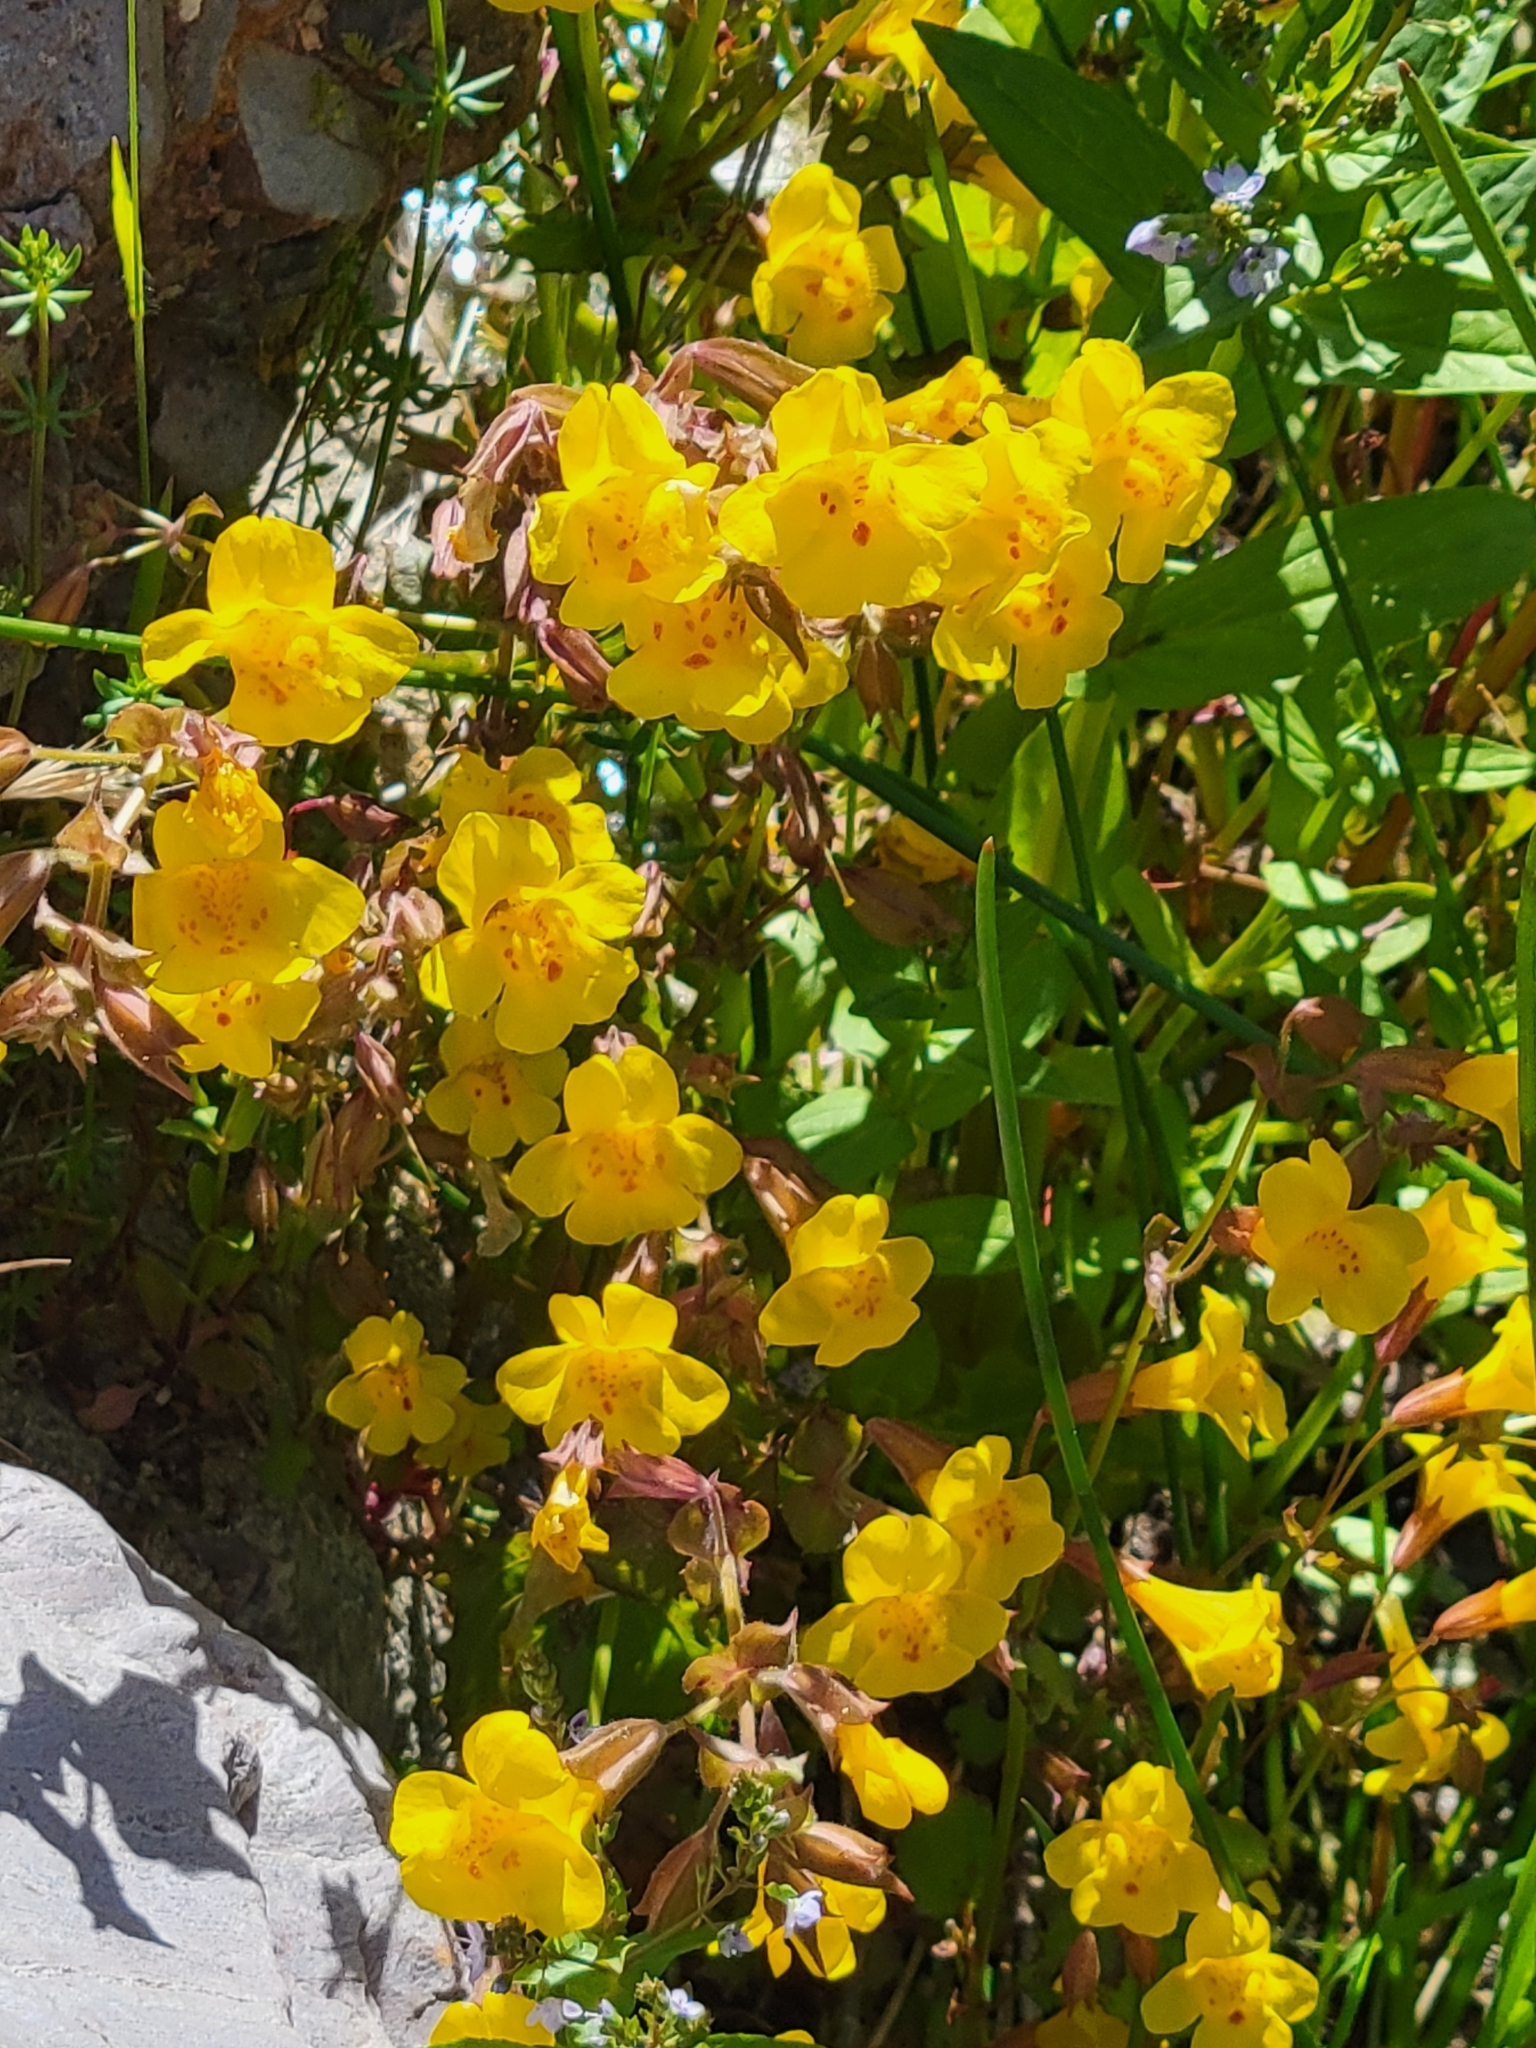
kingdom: Plantae
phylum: Tracheophyta
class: Magnoliopsida
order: Lamiales
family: Phrymaceae
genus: Erythranthe
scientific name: Erythranthe guttata
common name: Monkeyflower
